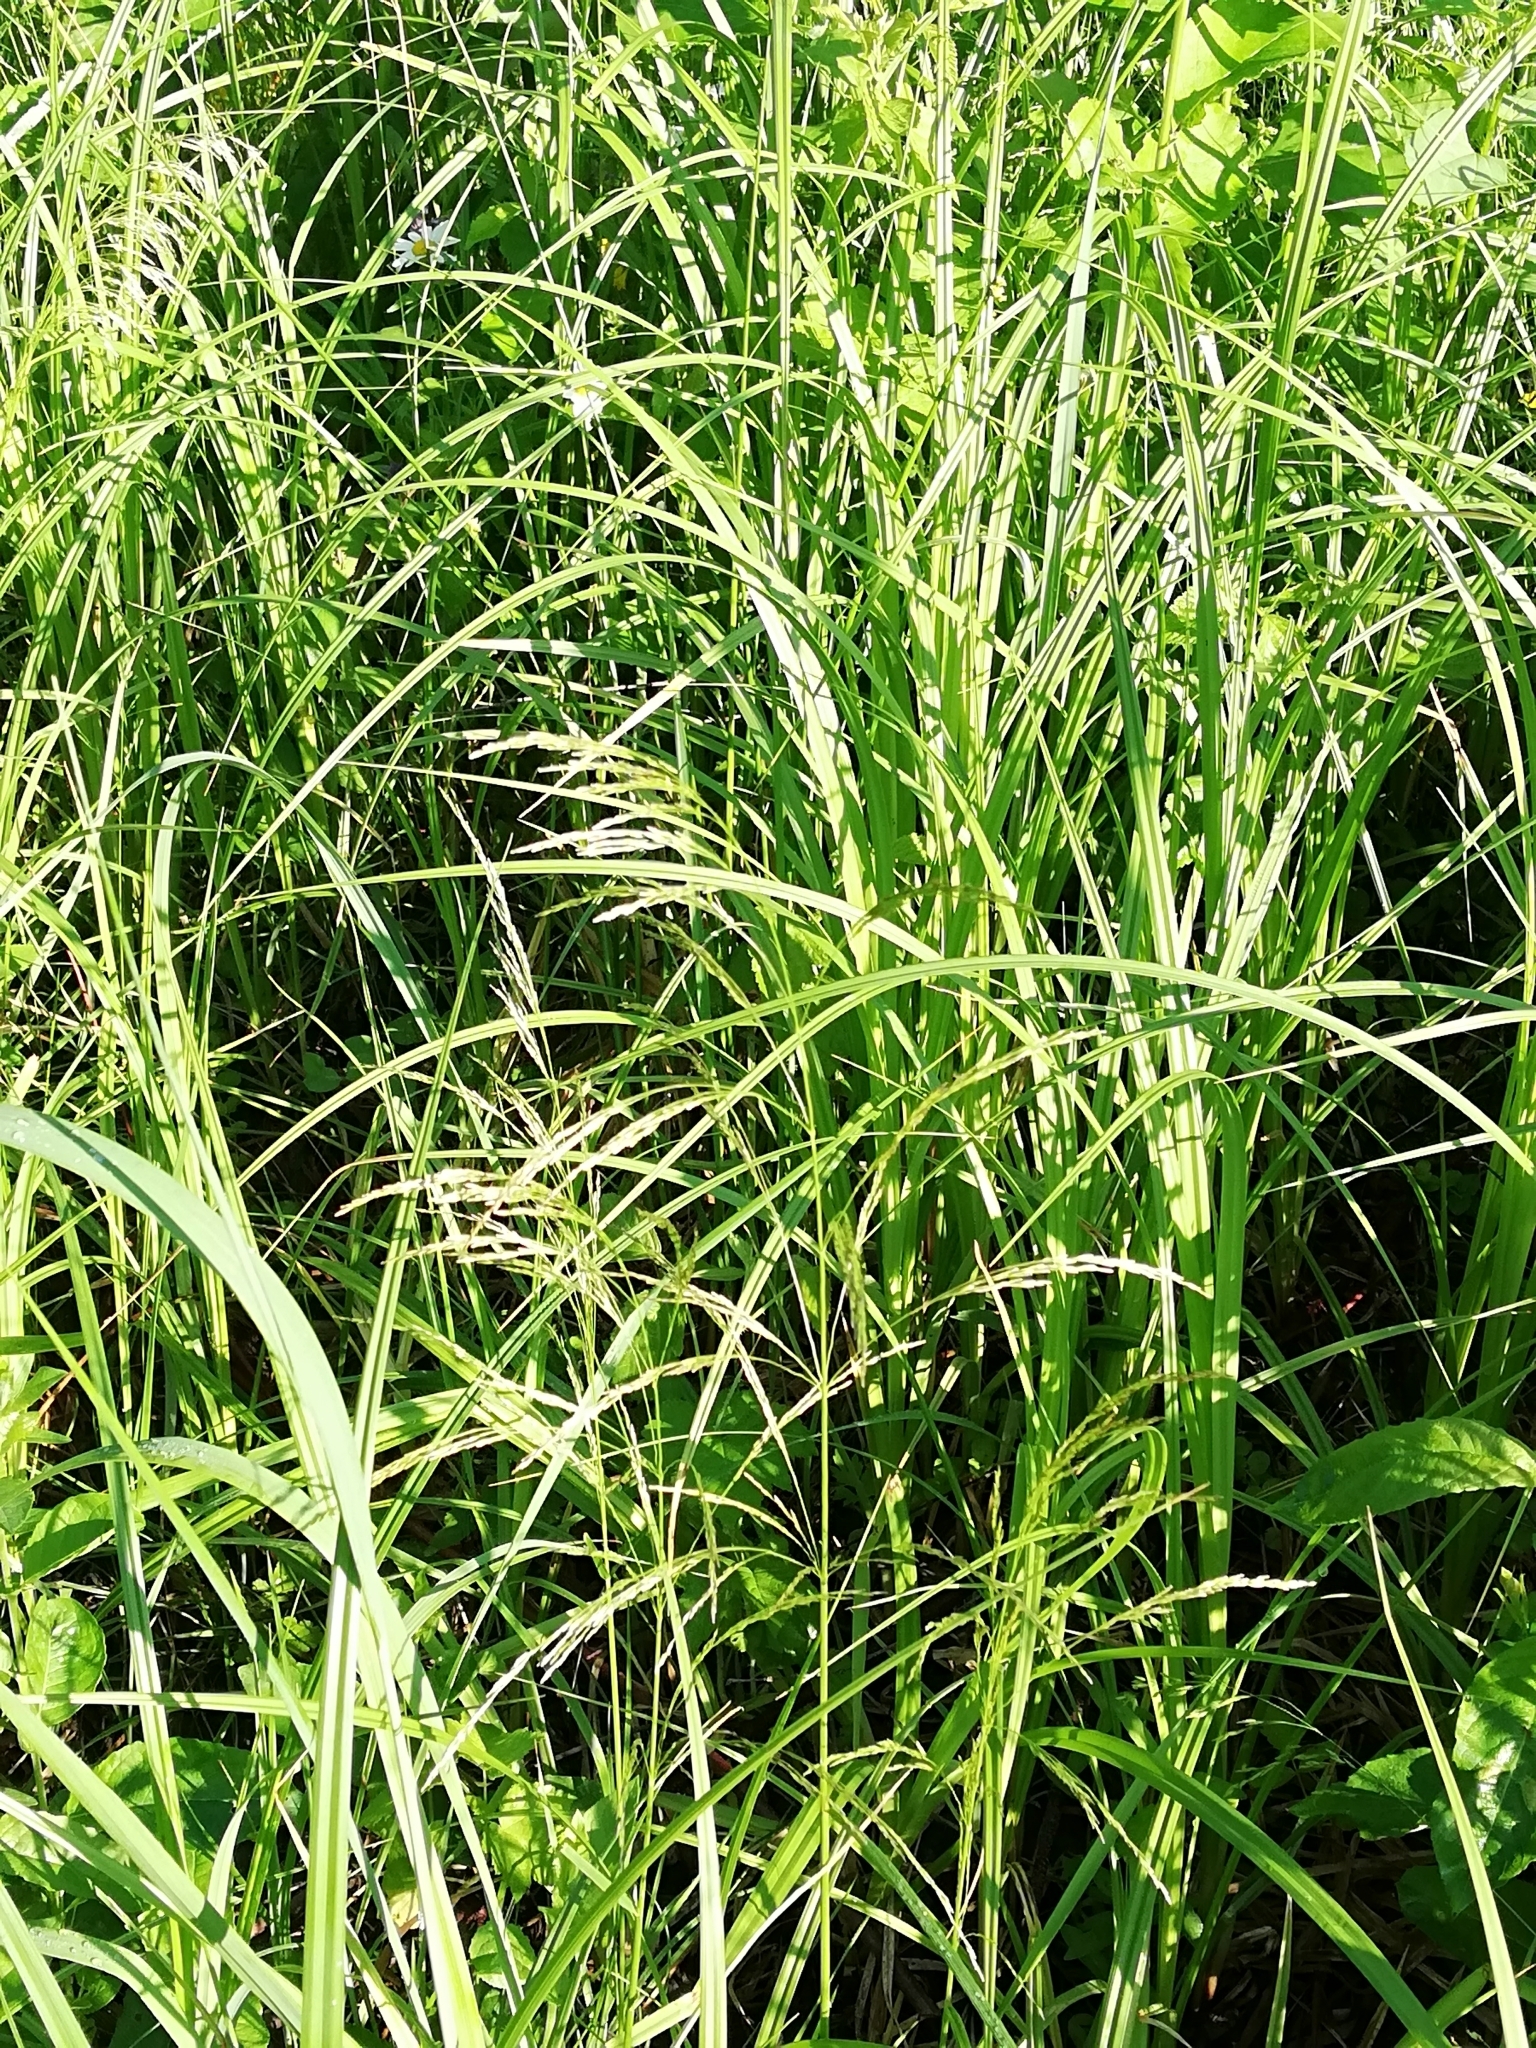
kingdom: Plantae
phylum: Tracheophyta
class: Liliopsida
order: Poales
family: Poaceae
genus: Deschampsia
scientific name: Deschampsia cespitosa
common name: Tufted hair-grass
